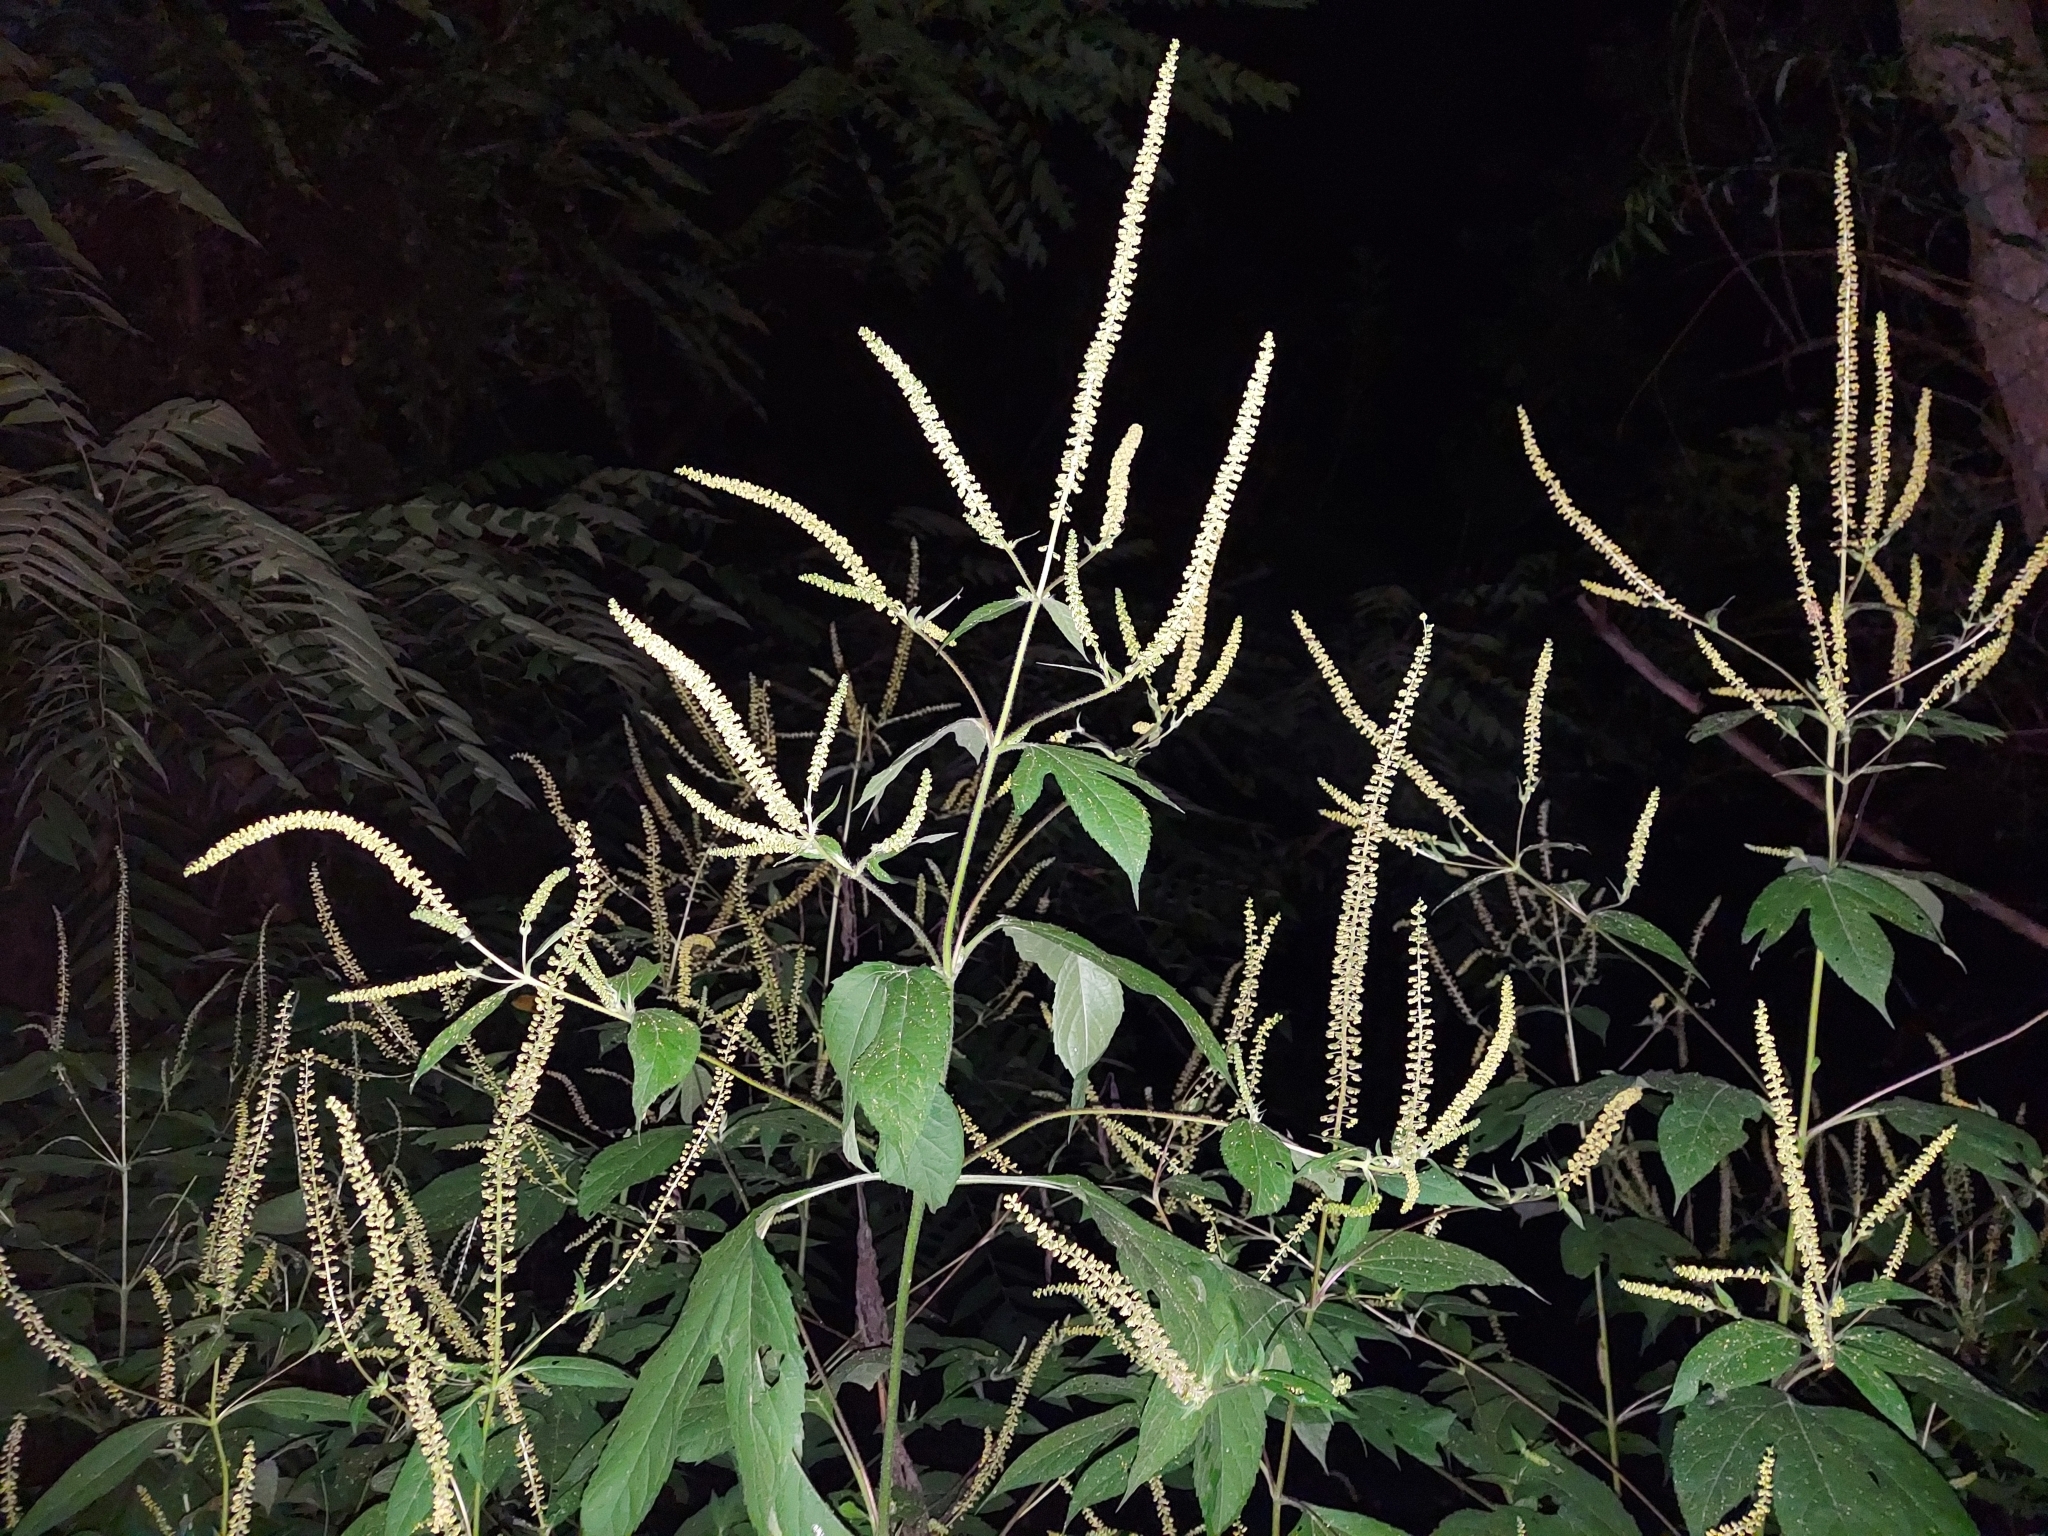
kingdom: Plantae
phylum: Tracheophyta
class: Magnoliopsida
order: Asterales
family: Asteraceae
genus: Ambrosia
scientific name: Ambrosia trifida
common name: Giant ragweed
